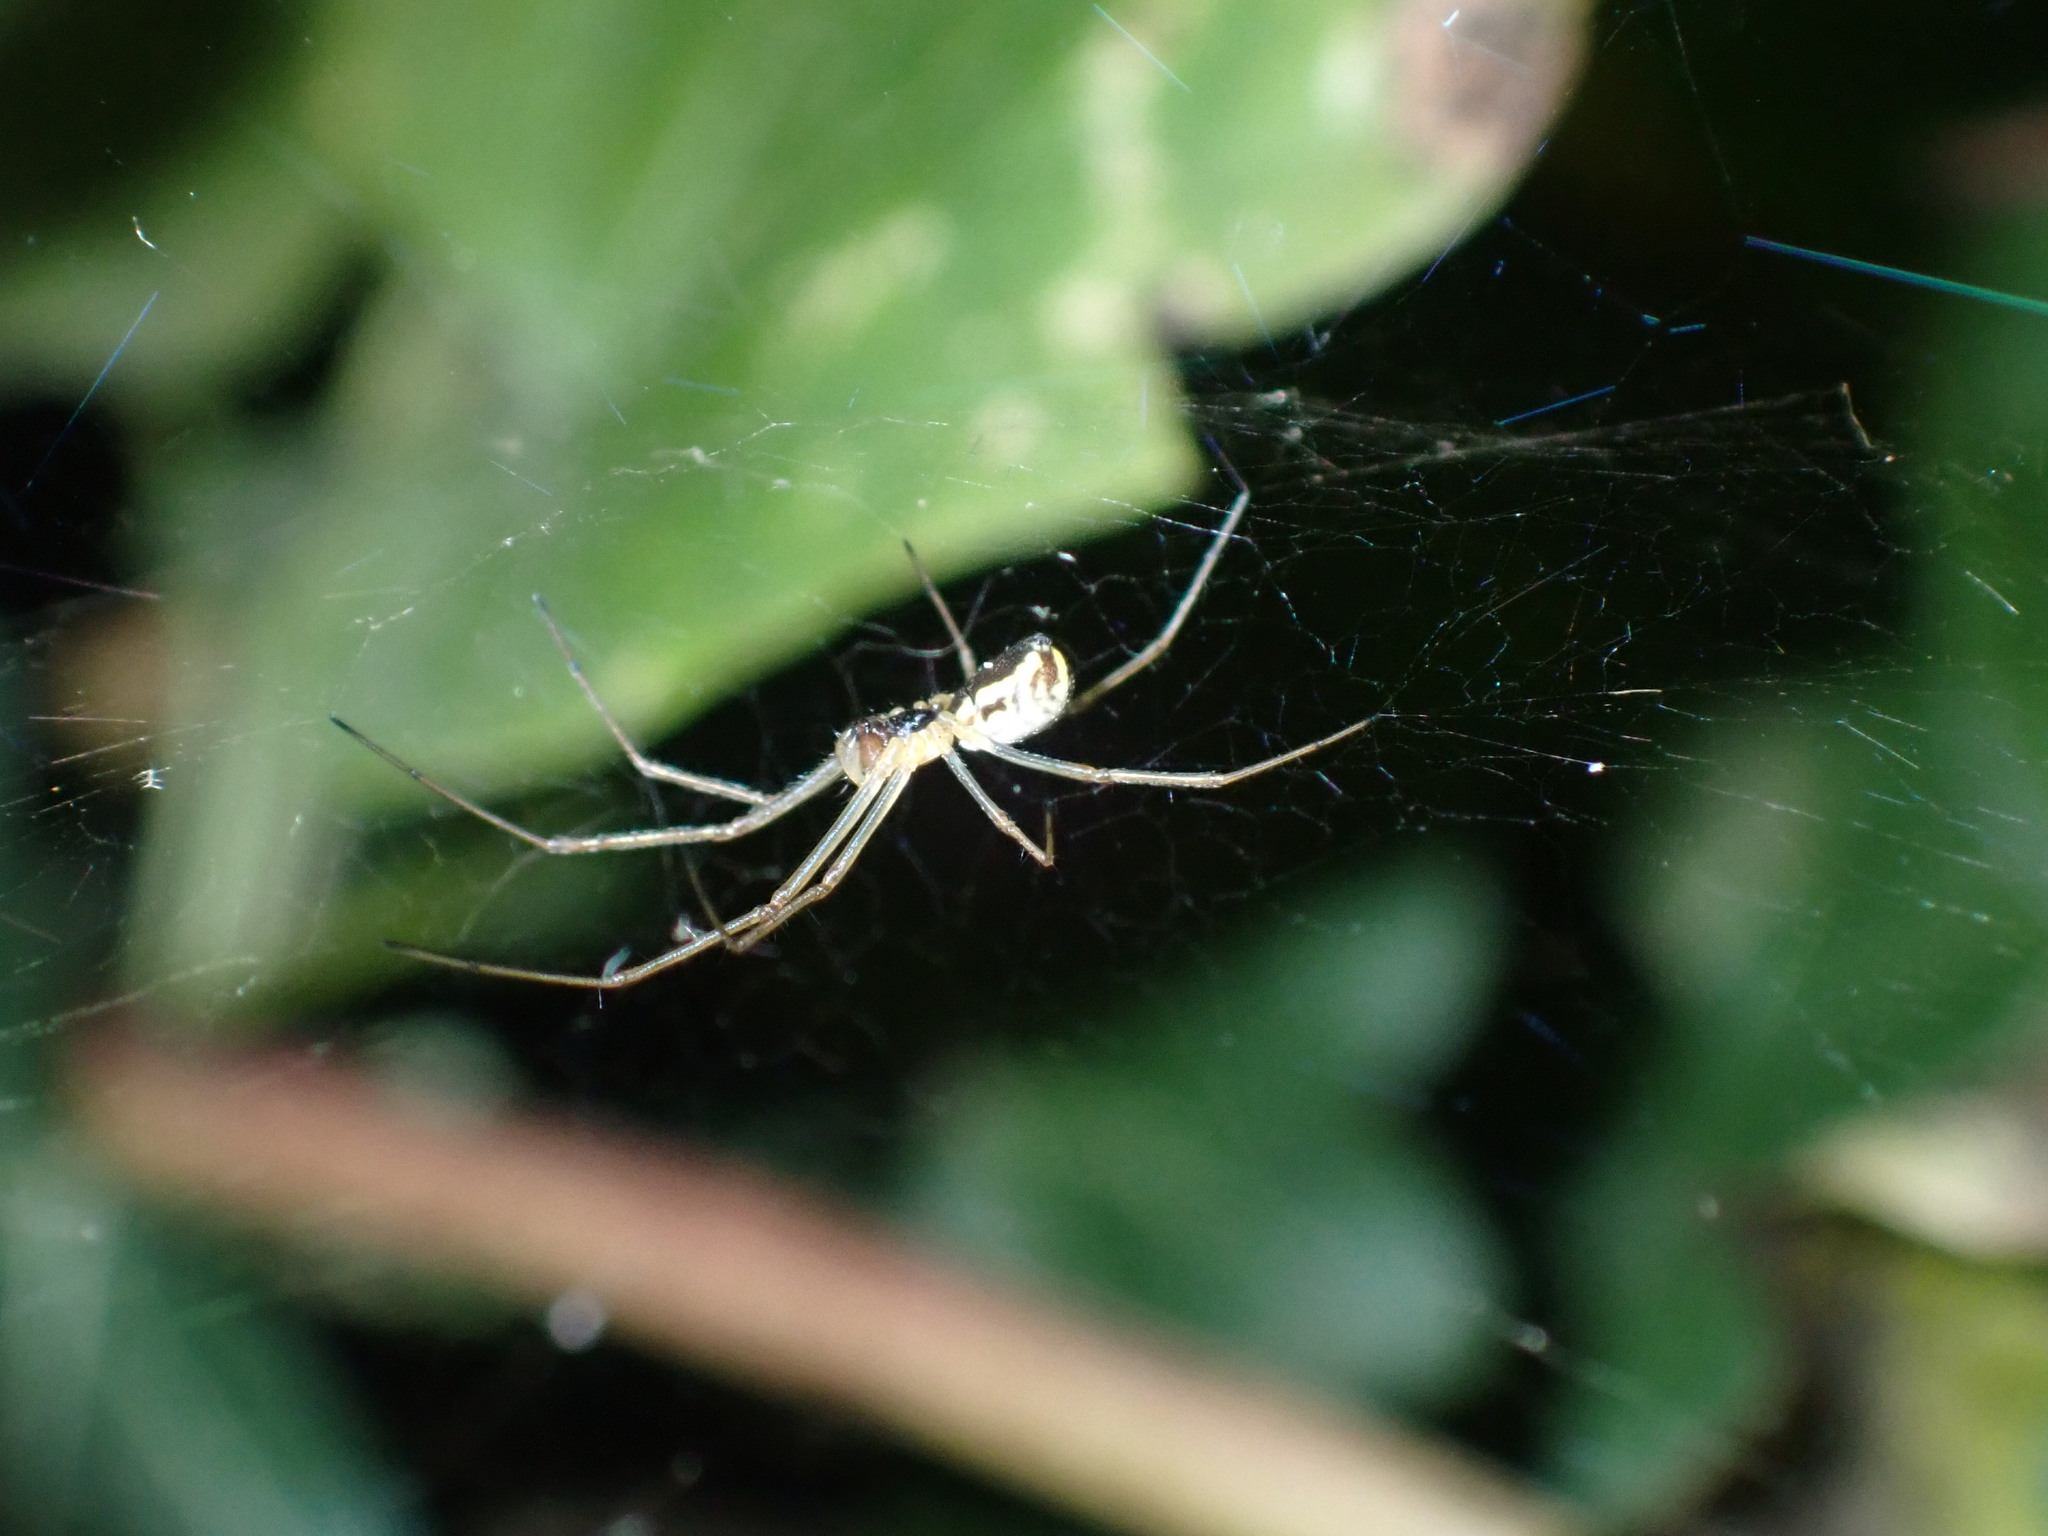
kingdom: Animalia
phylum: Arthropoda
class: Arachnida
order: Araneae
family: Linyphiidae
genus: Neriene
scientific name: Neriene radiata
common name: Filmy dome spider
